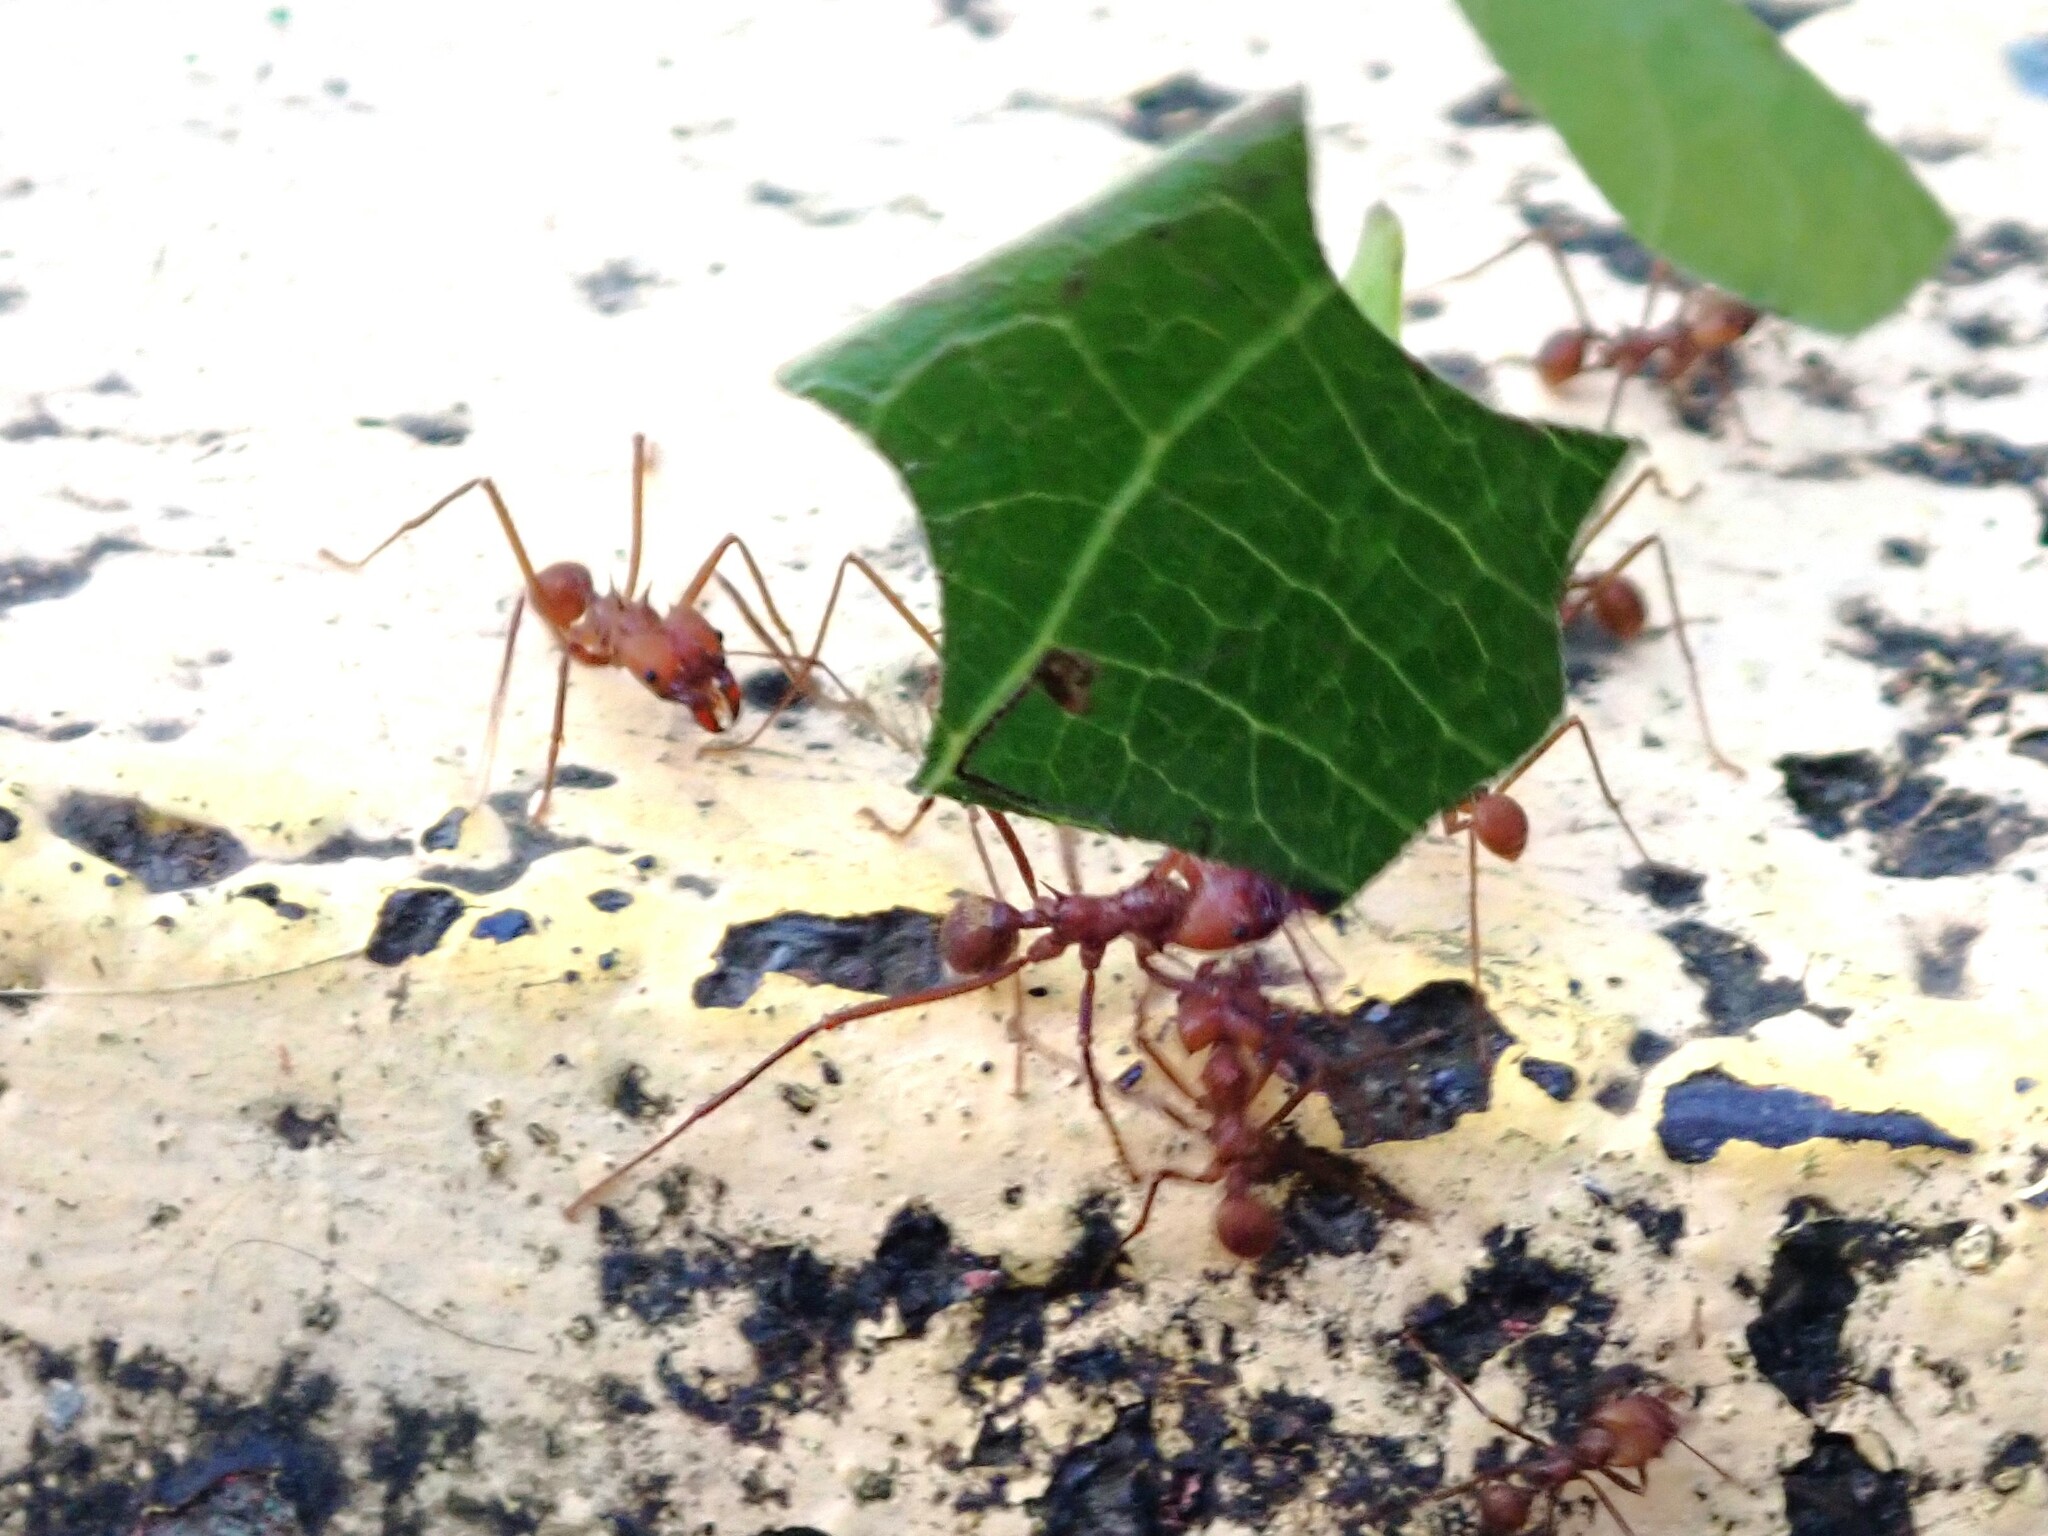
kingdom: Animalia
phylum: Arthropoda
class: Insecta
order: Hymenoptera
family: Formicidae
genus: Atta
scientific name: Atta cephalotes
